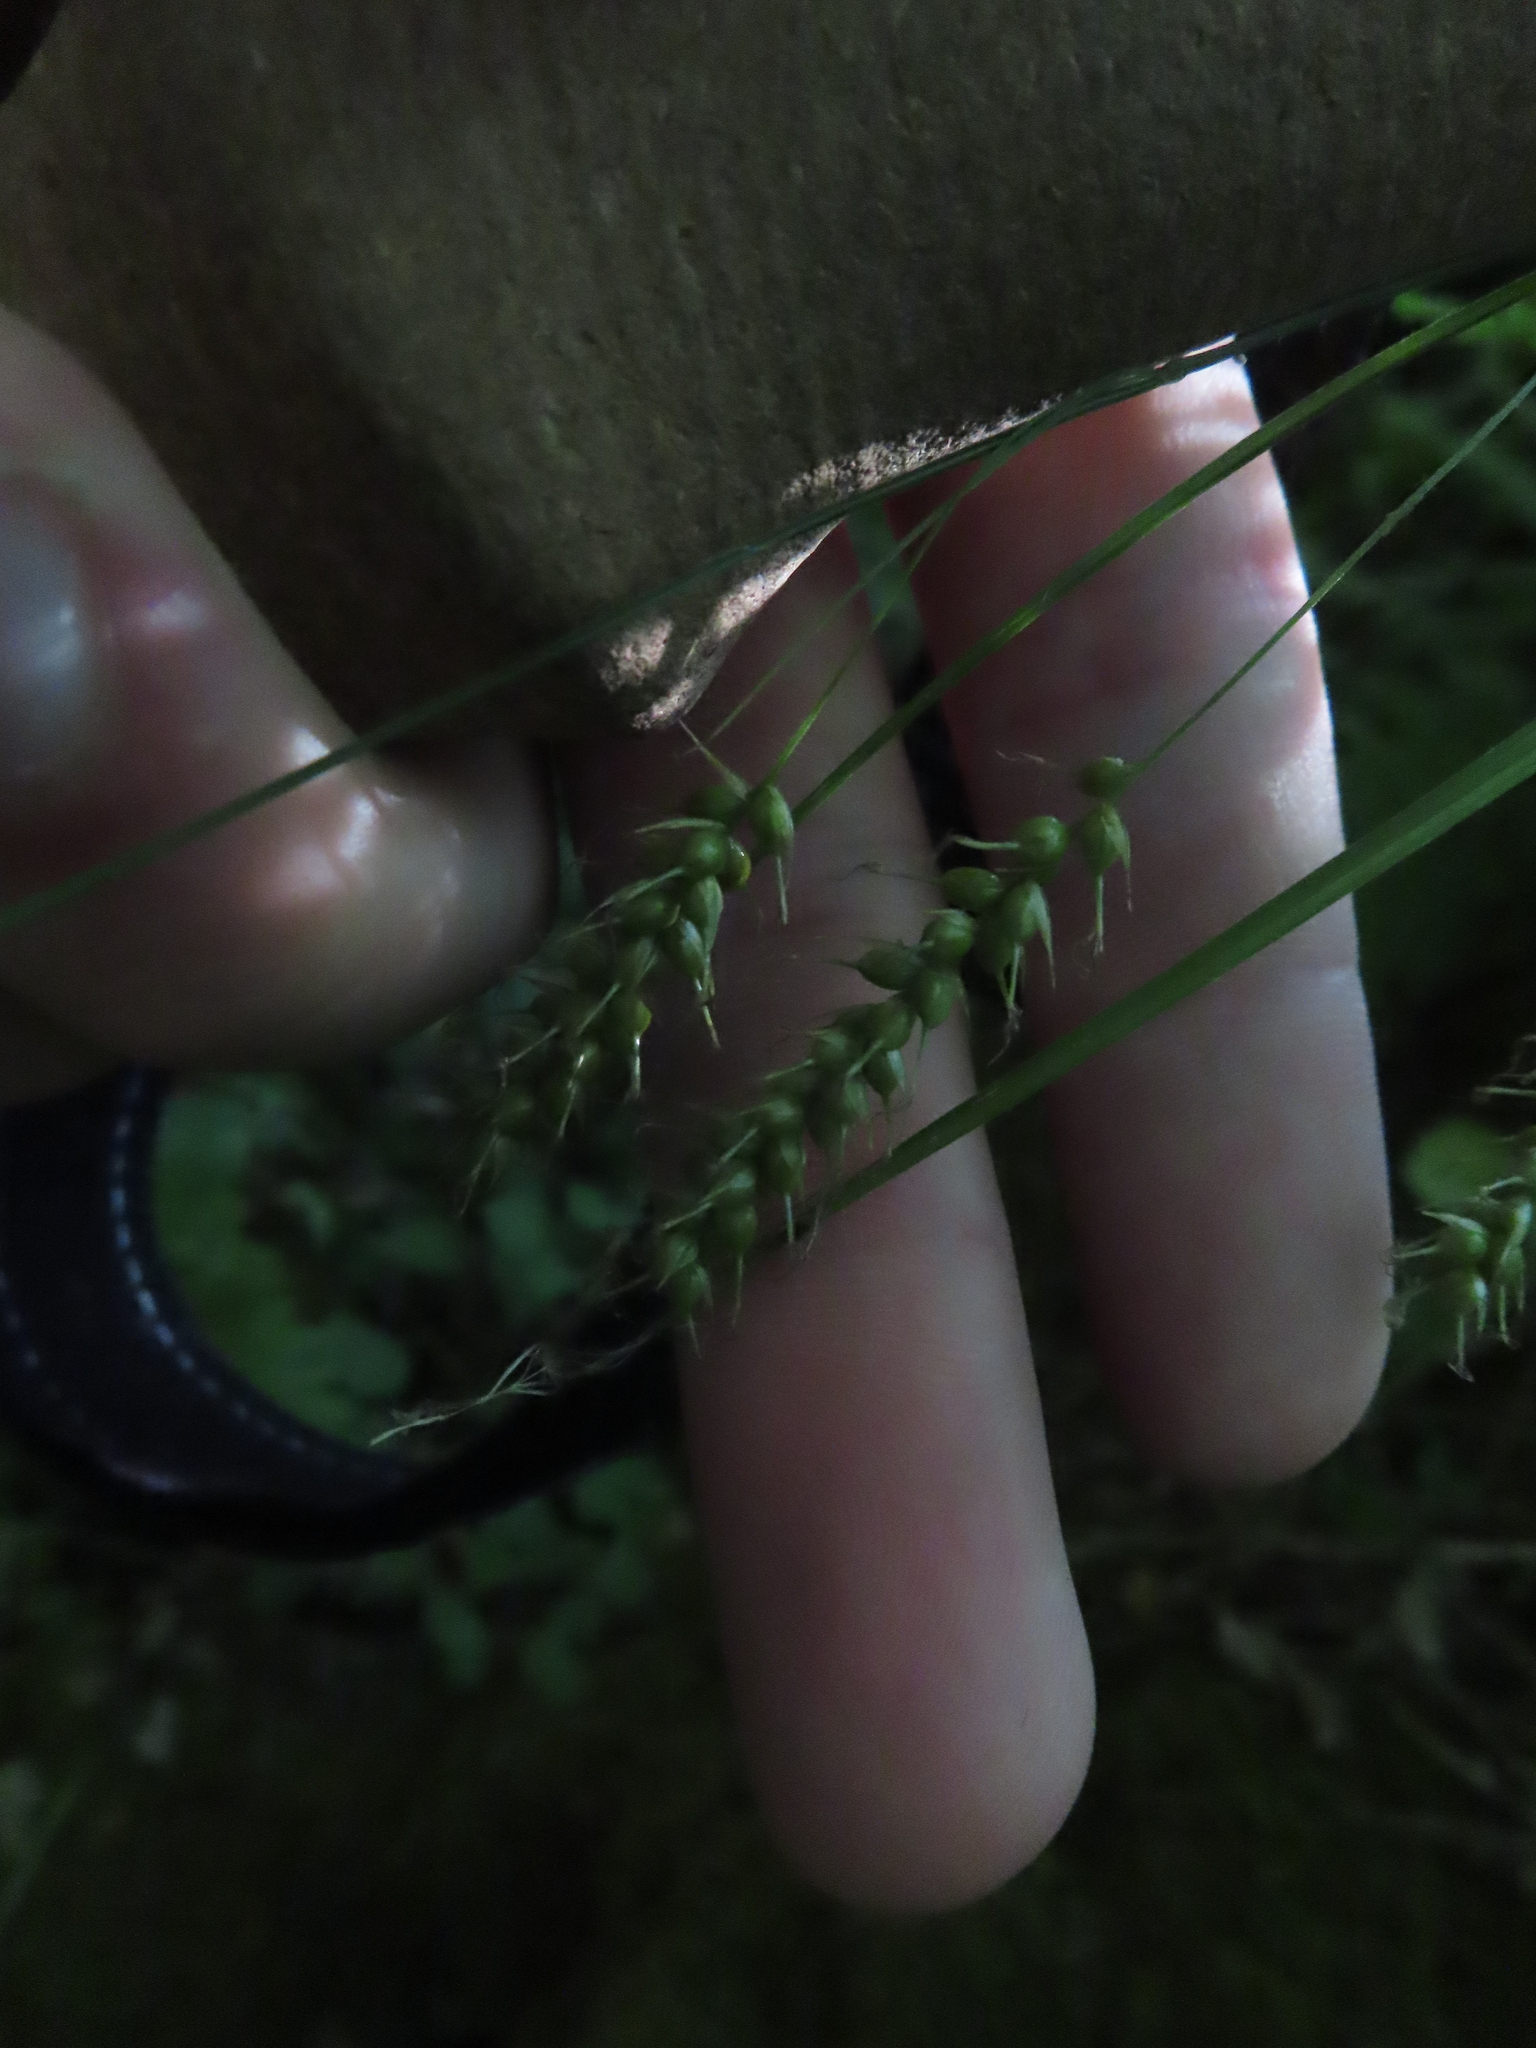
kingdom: Plantae
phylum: Tracheophyta
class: Liliopsida
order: Poales
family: Cyperaceae
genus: Carex
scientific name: Carex sprengelii
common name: Long-beaked sedge
